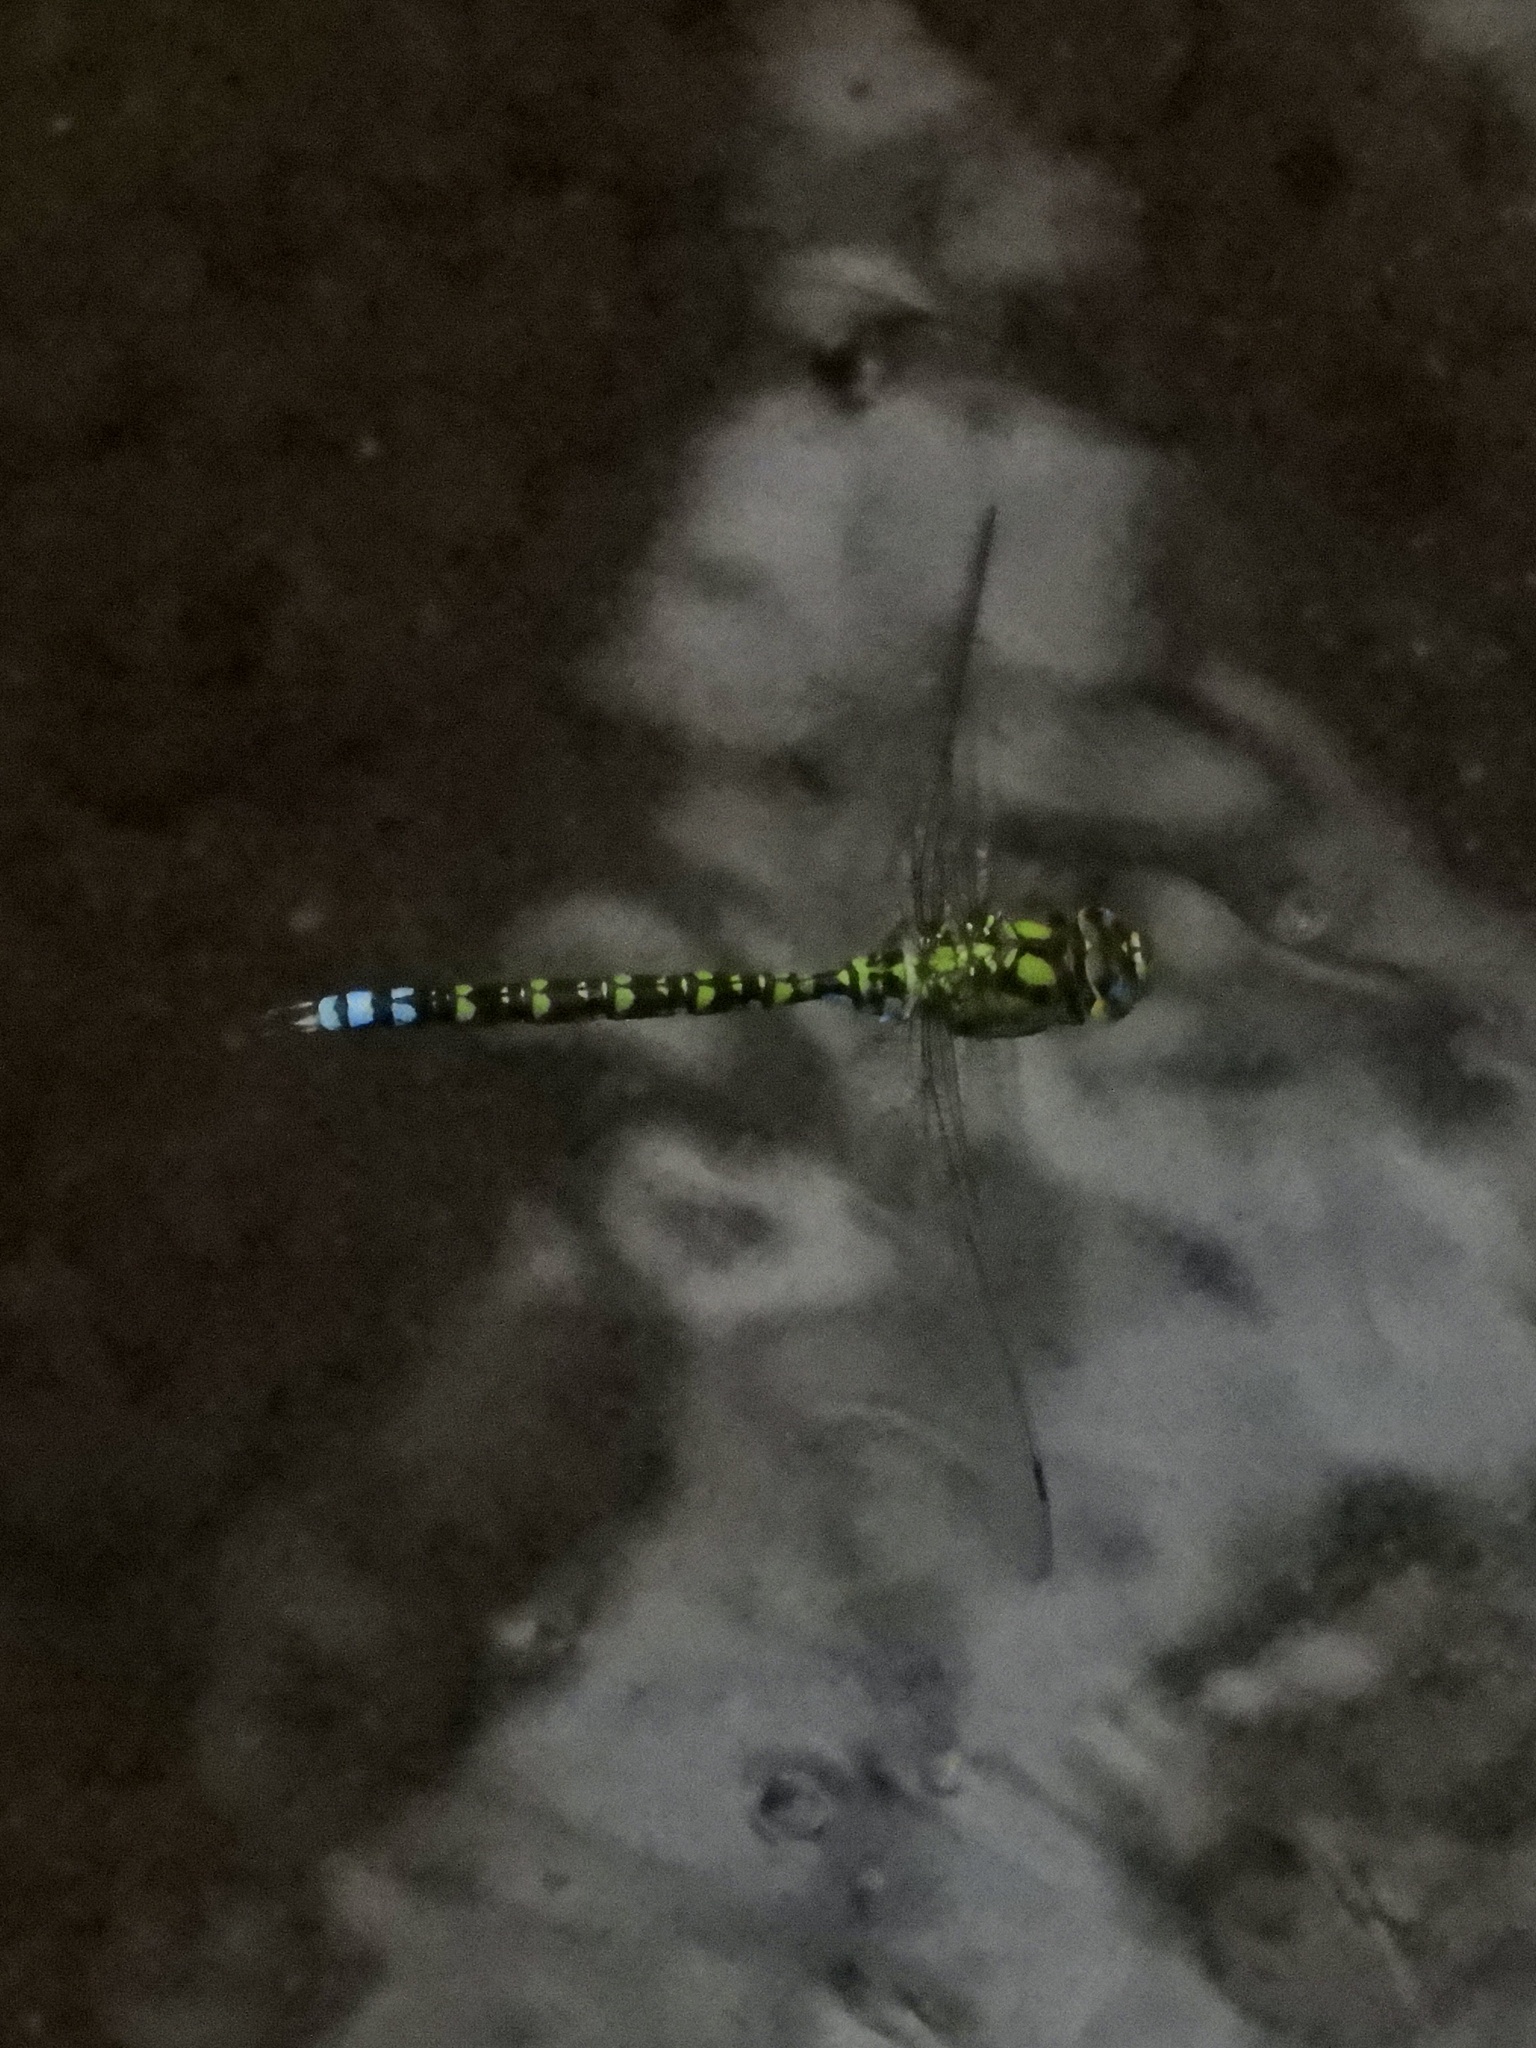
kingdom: Animalia
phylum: Arthropoda
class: Insecta
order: Odonata
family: Aeshnidae
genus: Aeshna
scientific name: Aeshna cyanea
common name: Southern hawker
